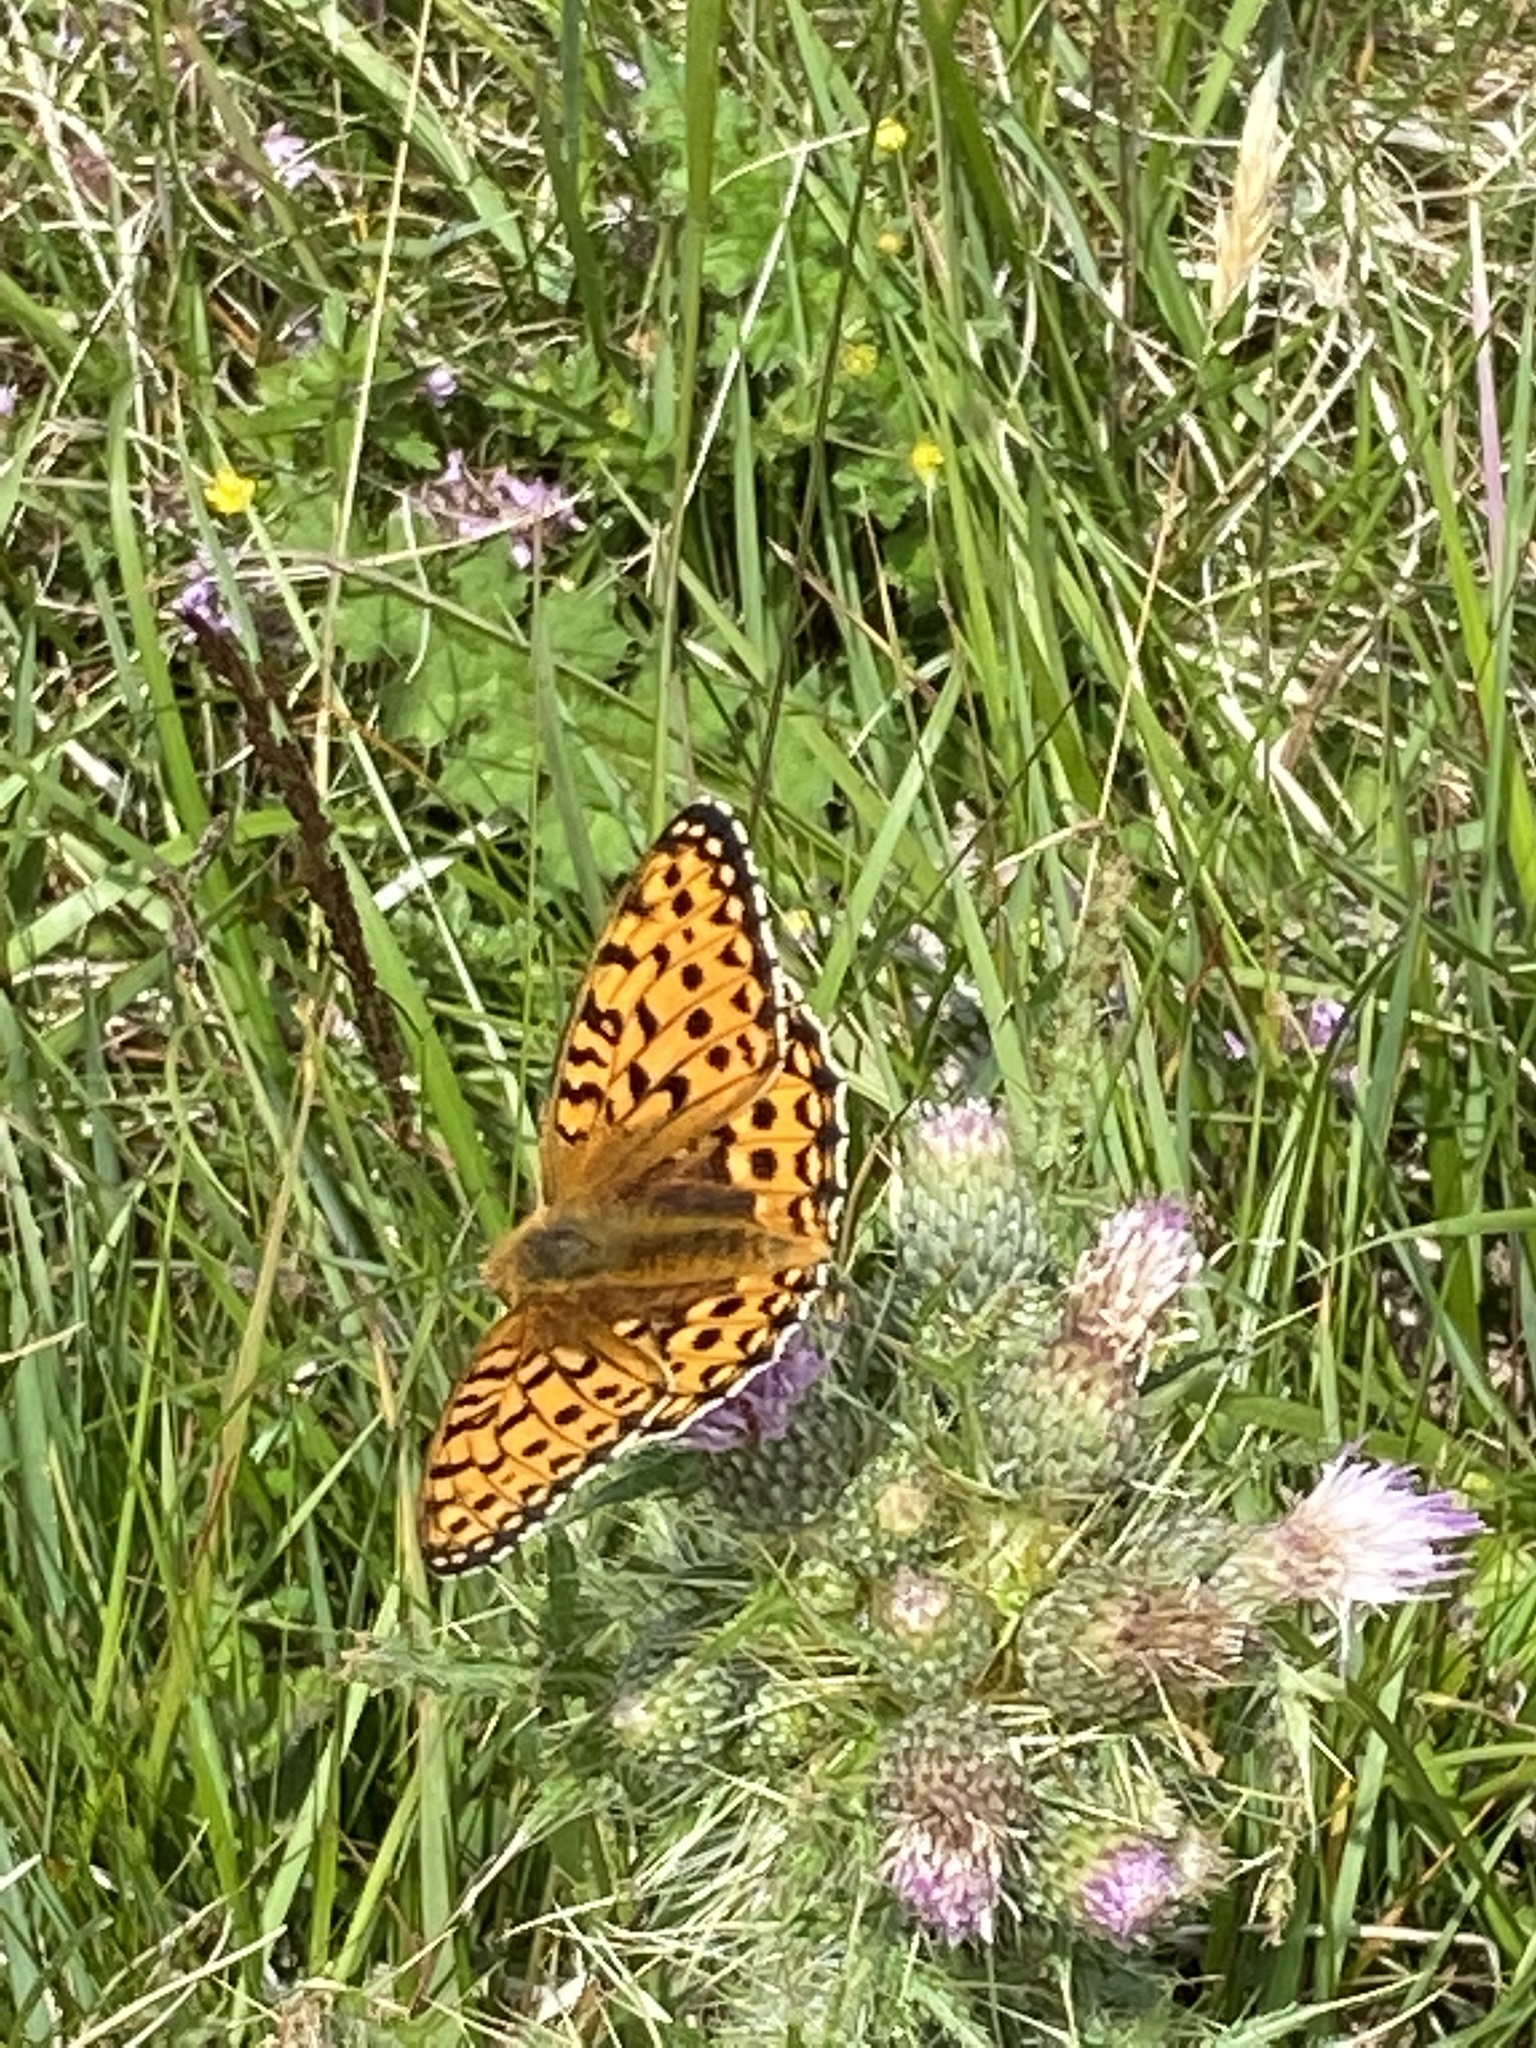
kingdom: Animalia
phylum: Arthropoda
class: Insecta
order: Lepidoptera
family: Nymphalidae
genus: Speyeria
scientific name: Speyeria aglaja
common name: Dark green fritillary
